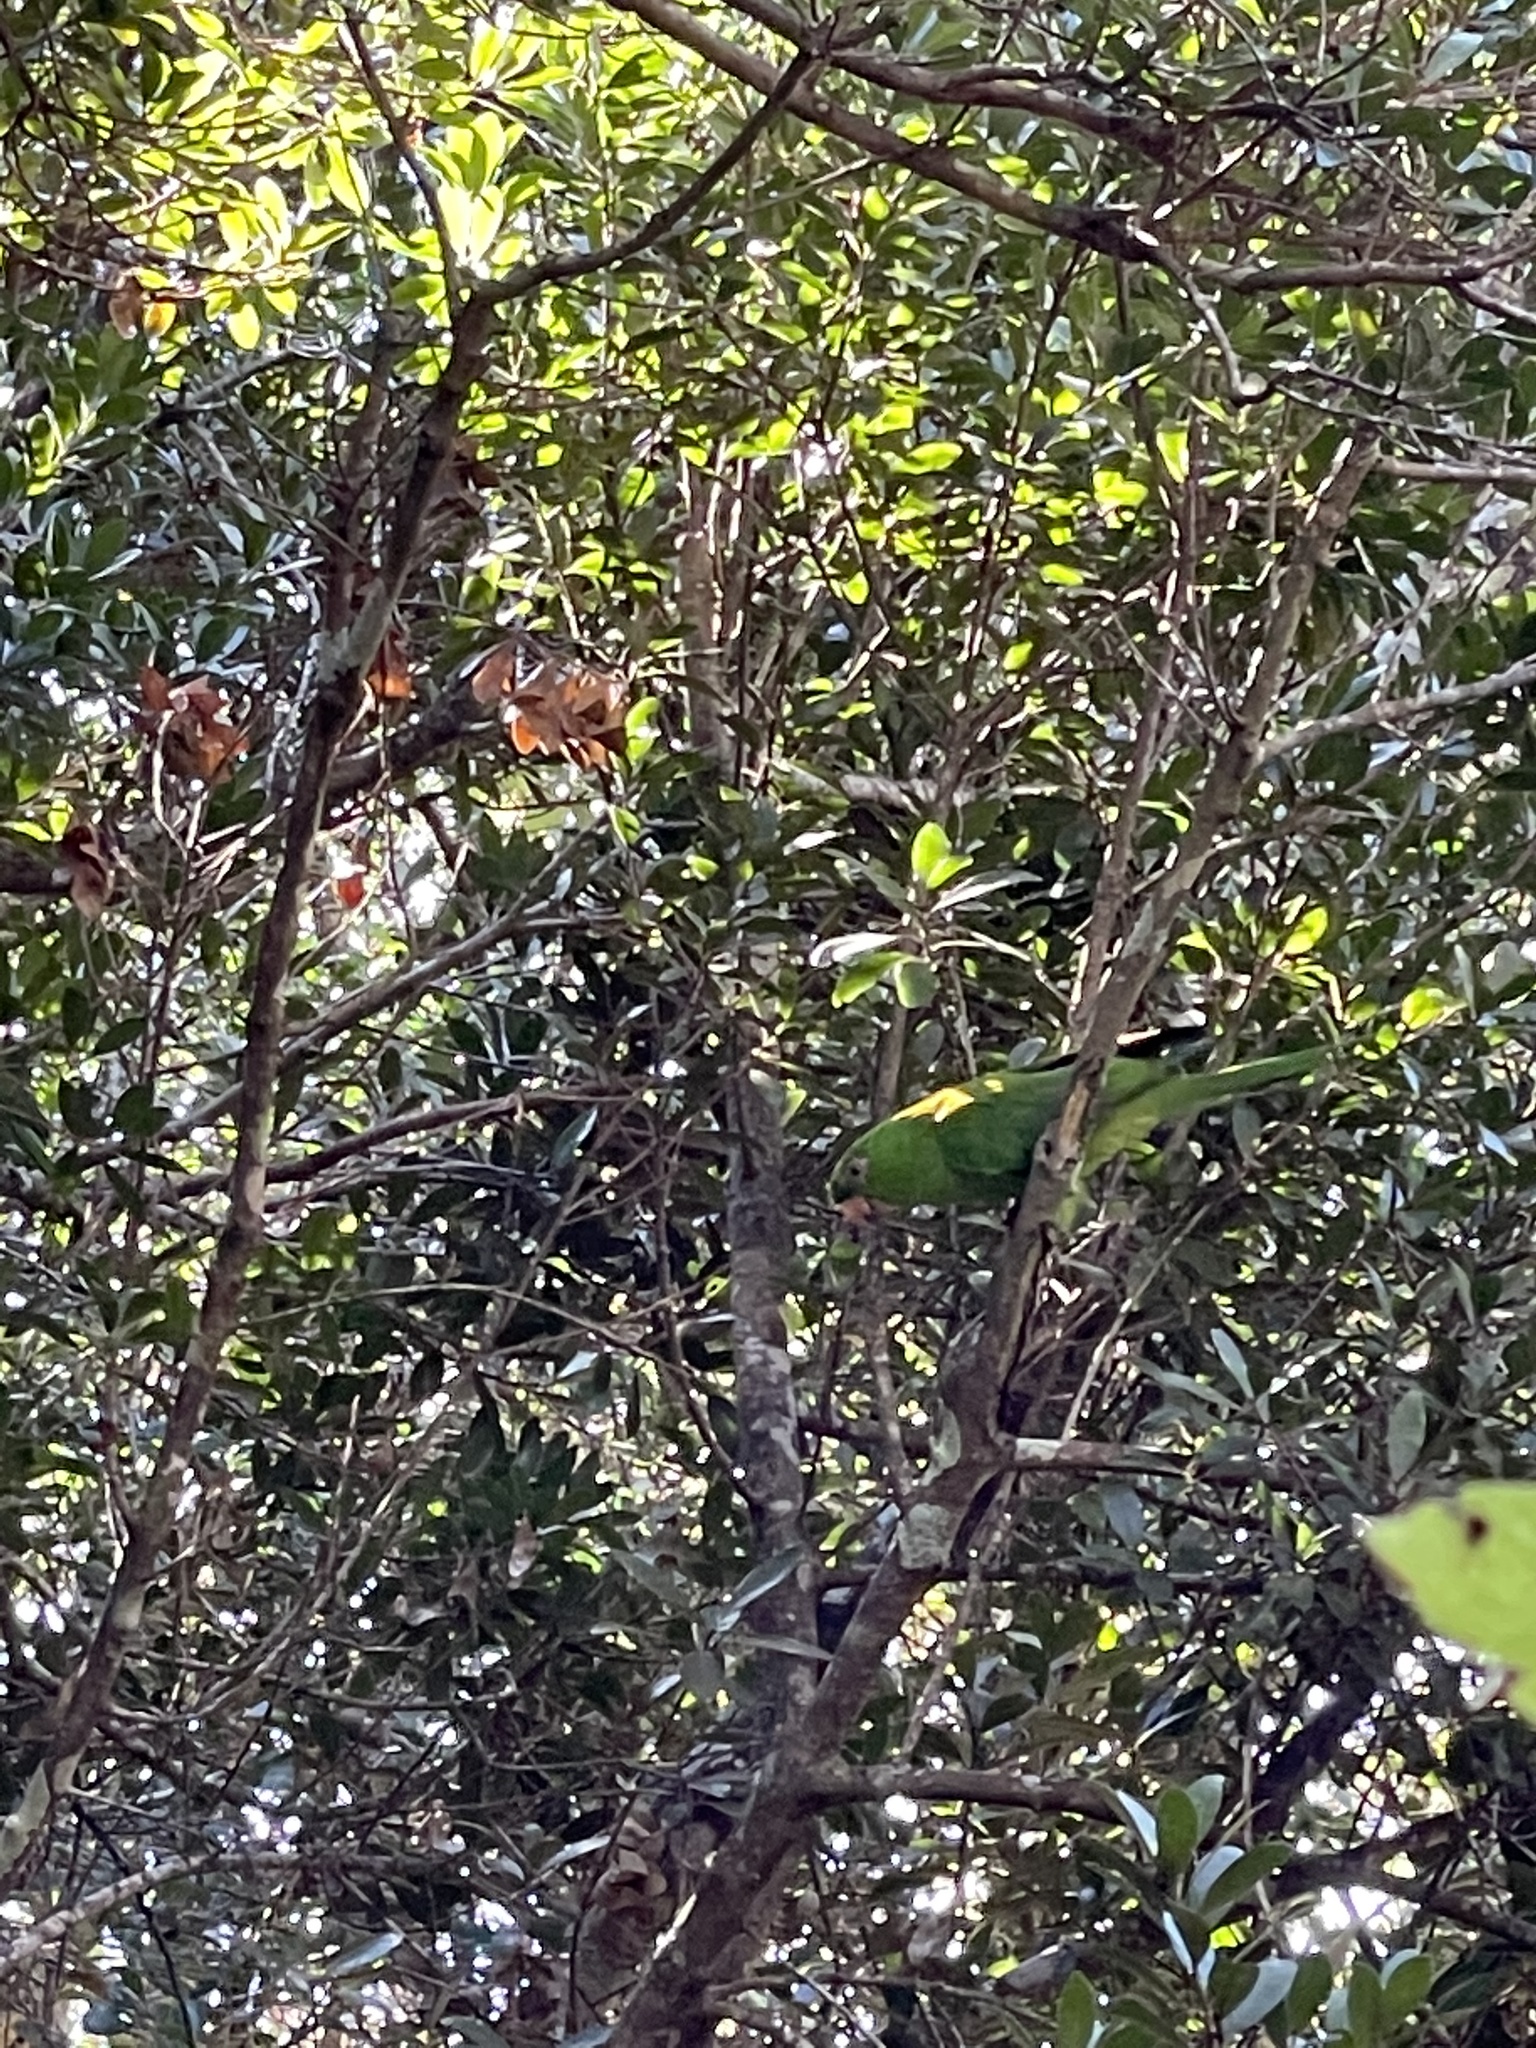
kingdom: Animalia
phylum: Chordata
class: Aves
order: Psittaciformes
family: Psittacidae
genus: Aratinga
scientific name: Aratinga holochlora
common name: Green parakeet
